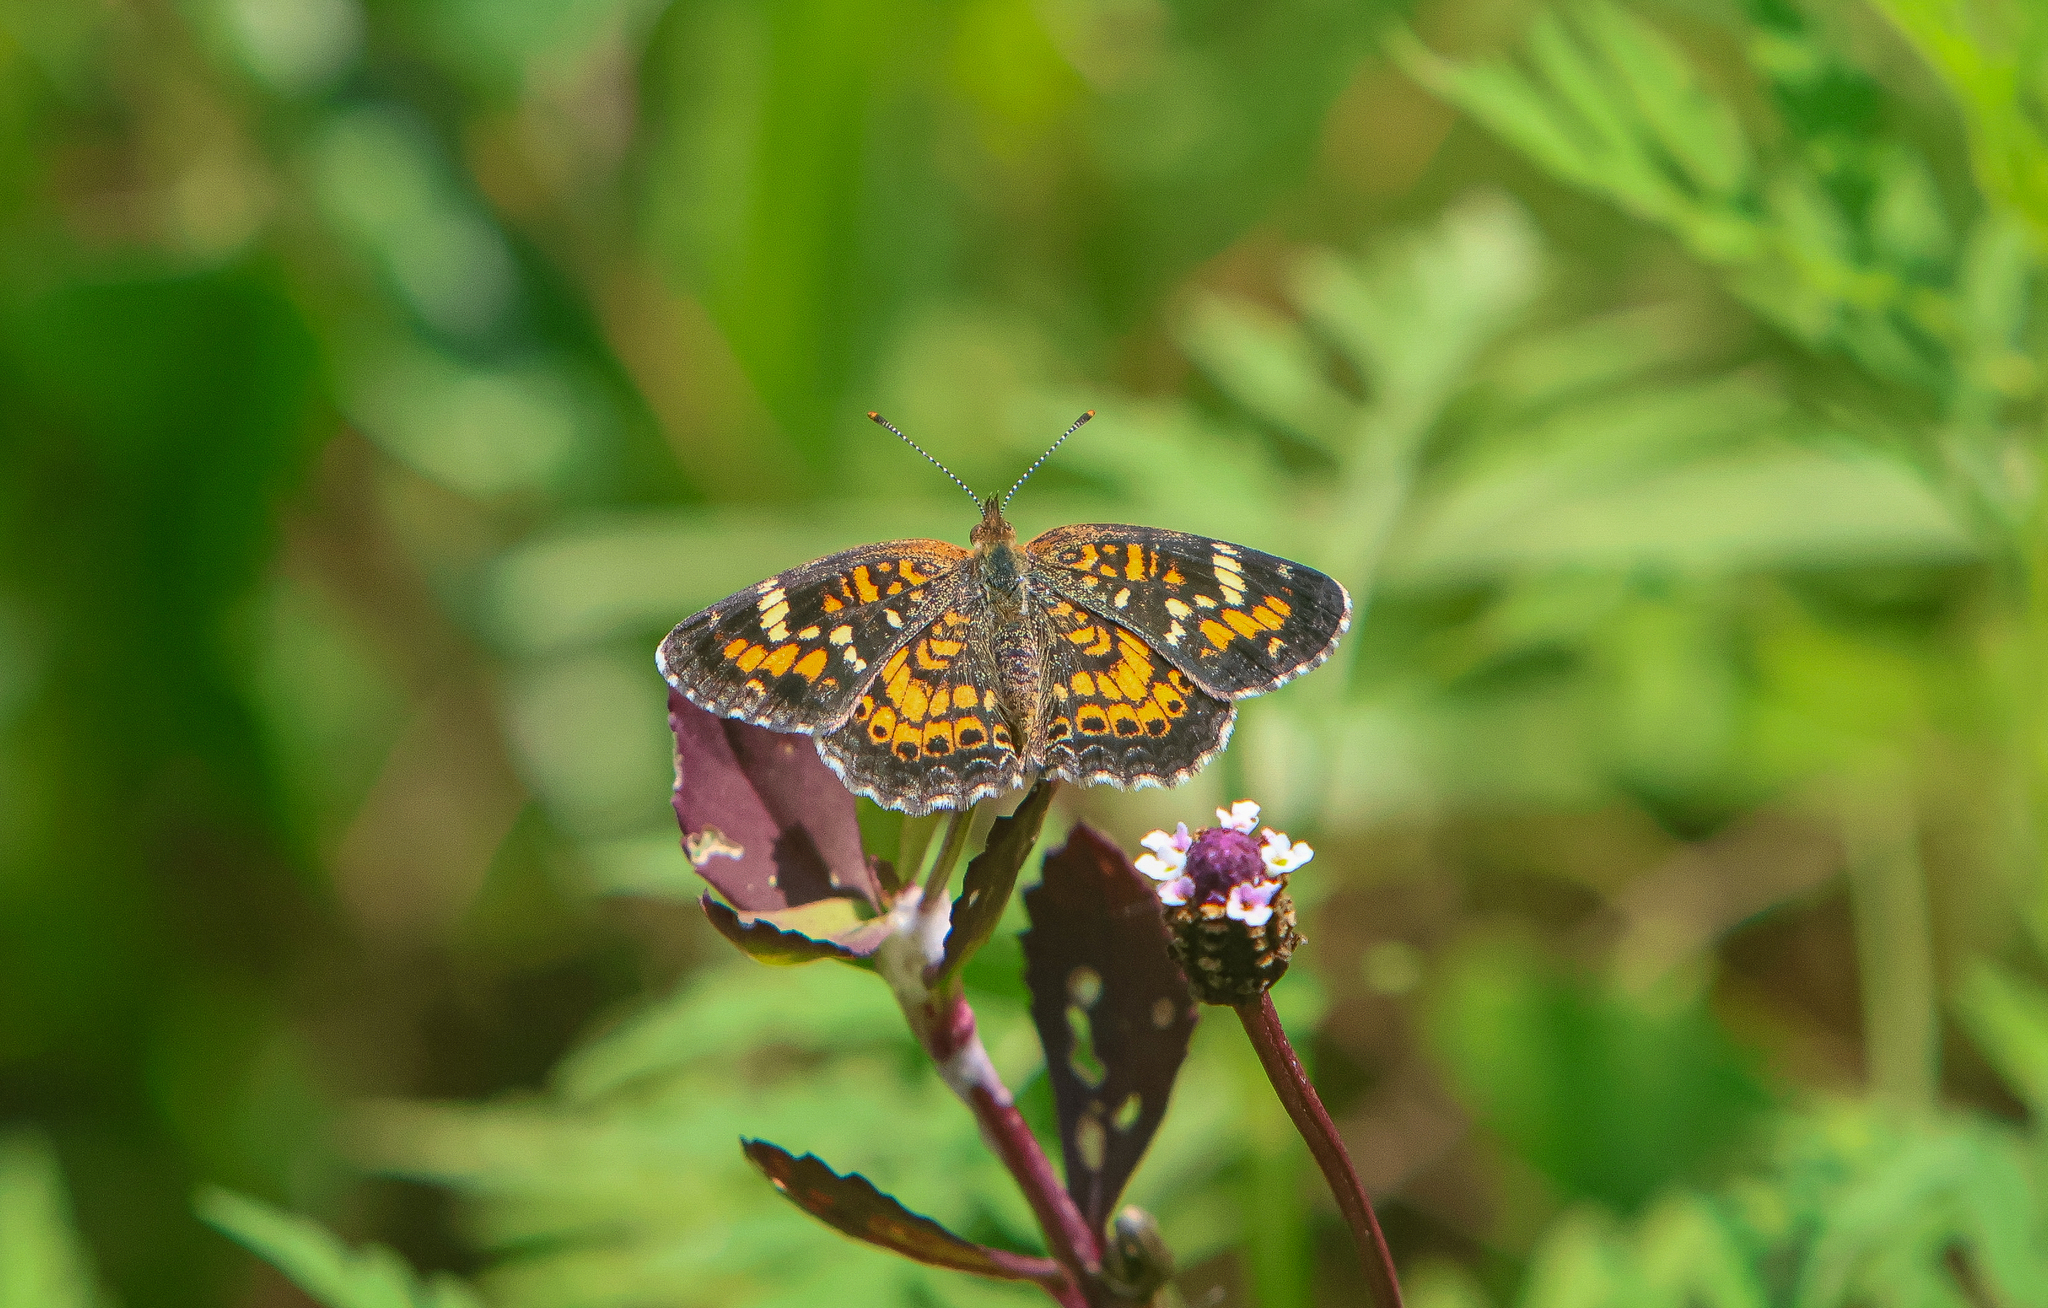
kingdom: Animalia
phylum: Arthropoda
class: Insecta
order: Lepidoptera
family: Nymphalidae
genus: Phyciodes
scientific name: Phyciodes phaon
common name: Phaon crescent
